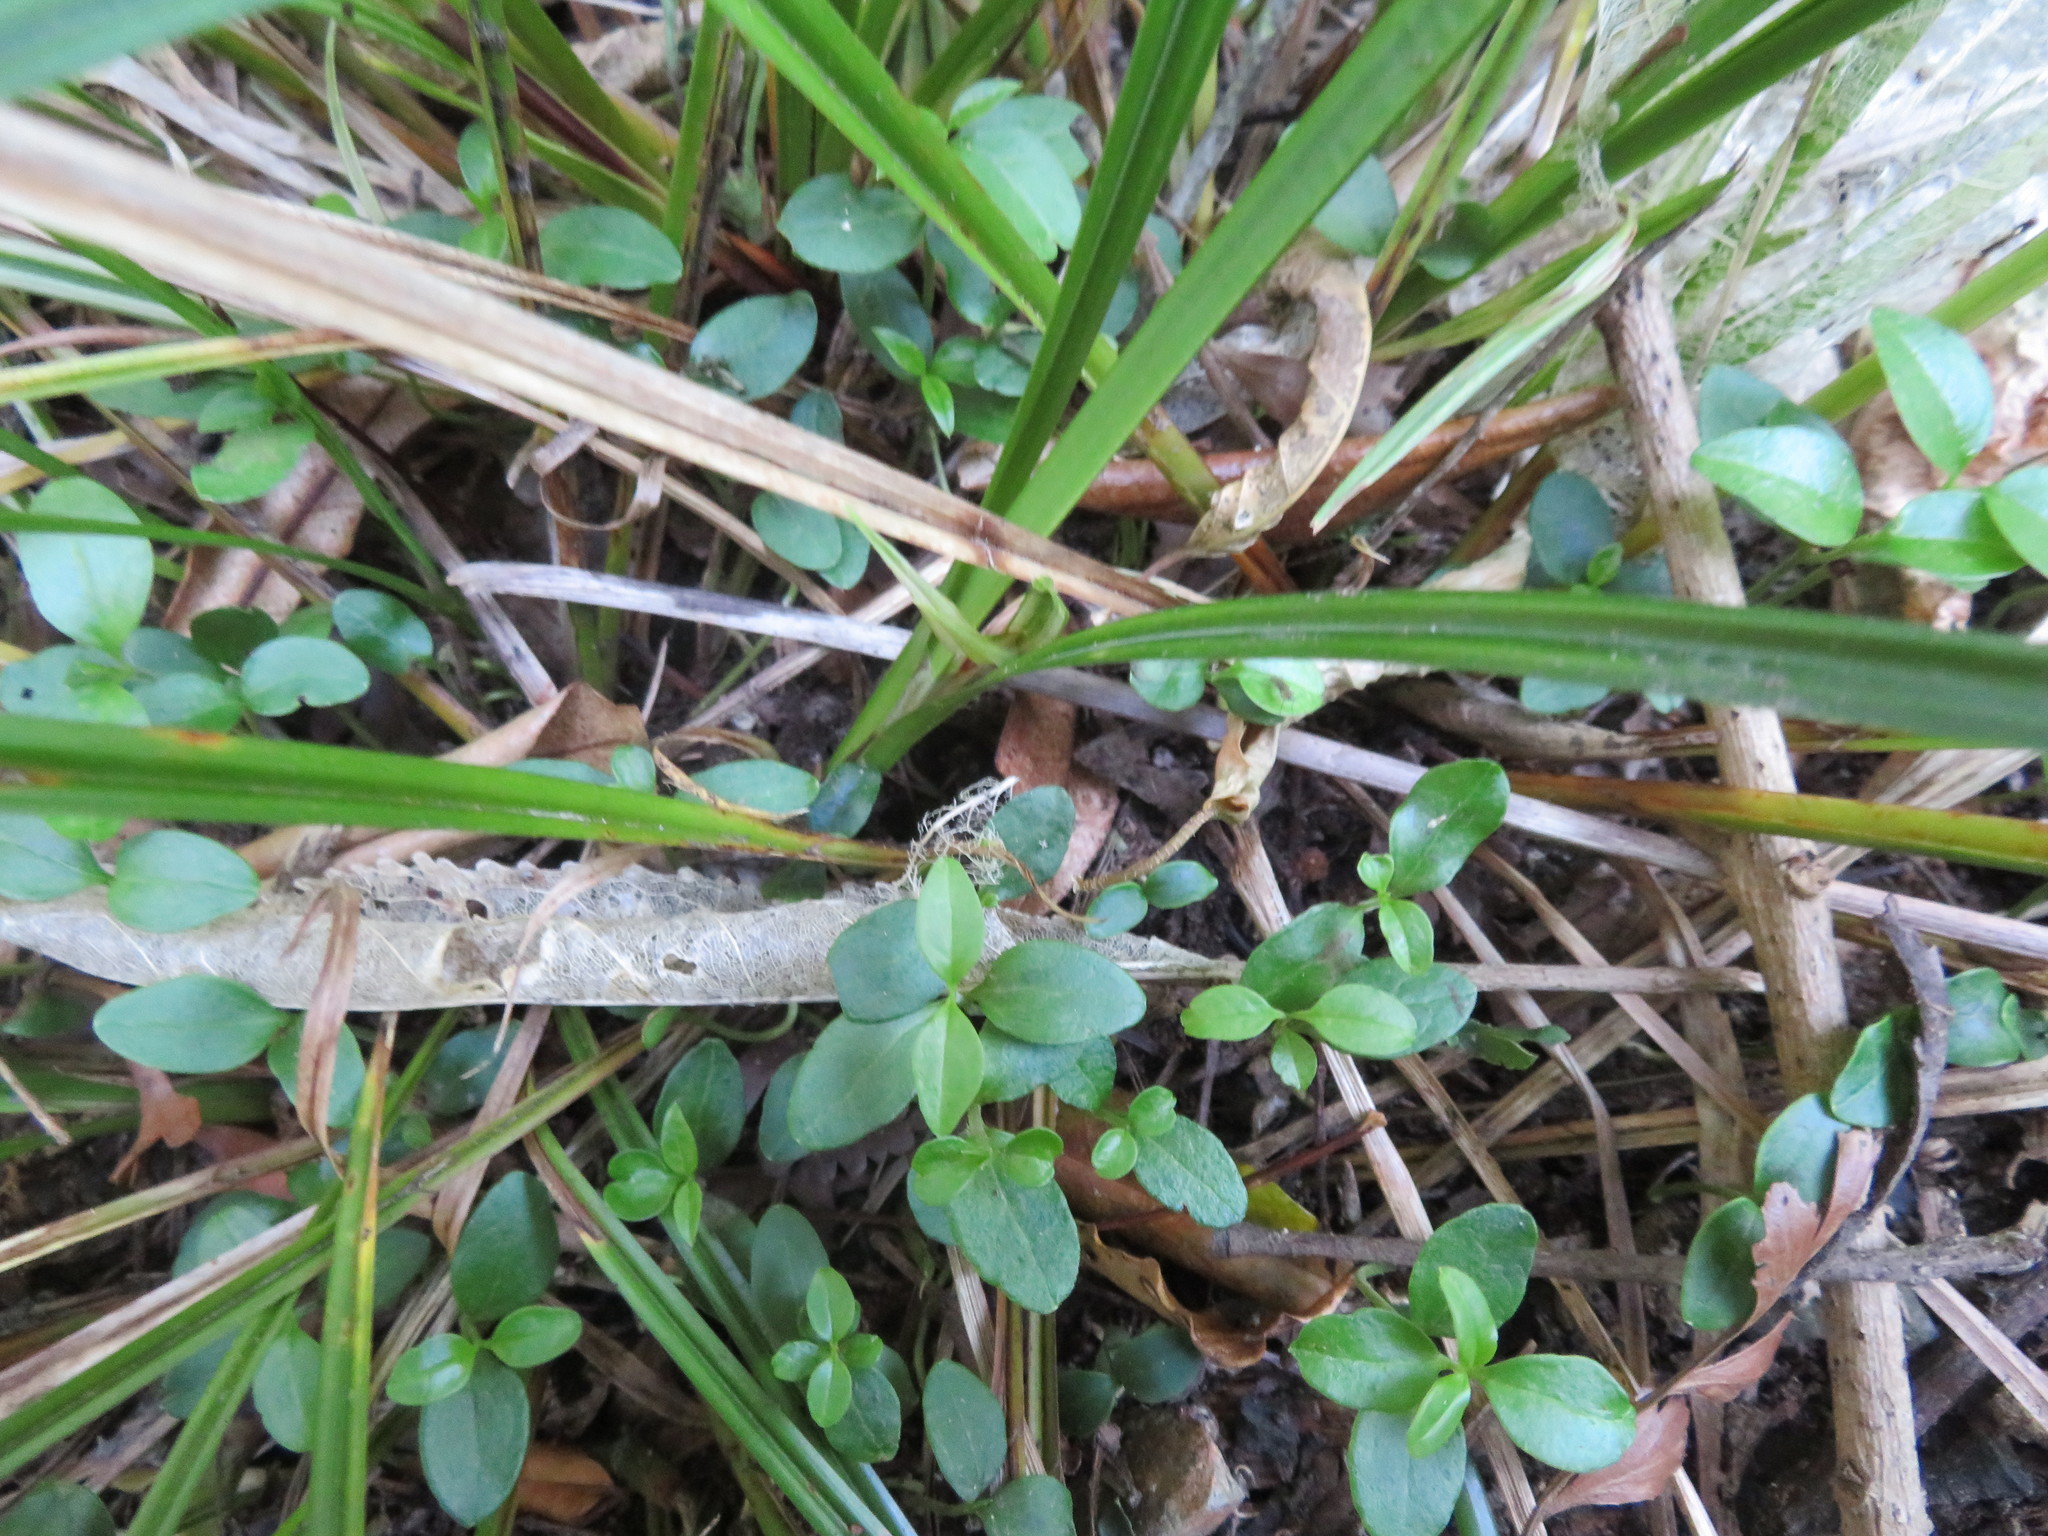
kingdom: Plantae
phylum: Tracheophyta
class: Magnoliopsida
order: Lamiales
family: Oleaceae
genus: Ligustrum
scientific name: Ligustrum lucidum
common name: Glossy privet
